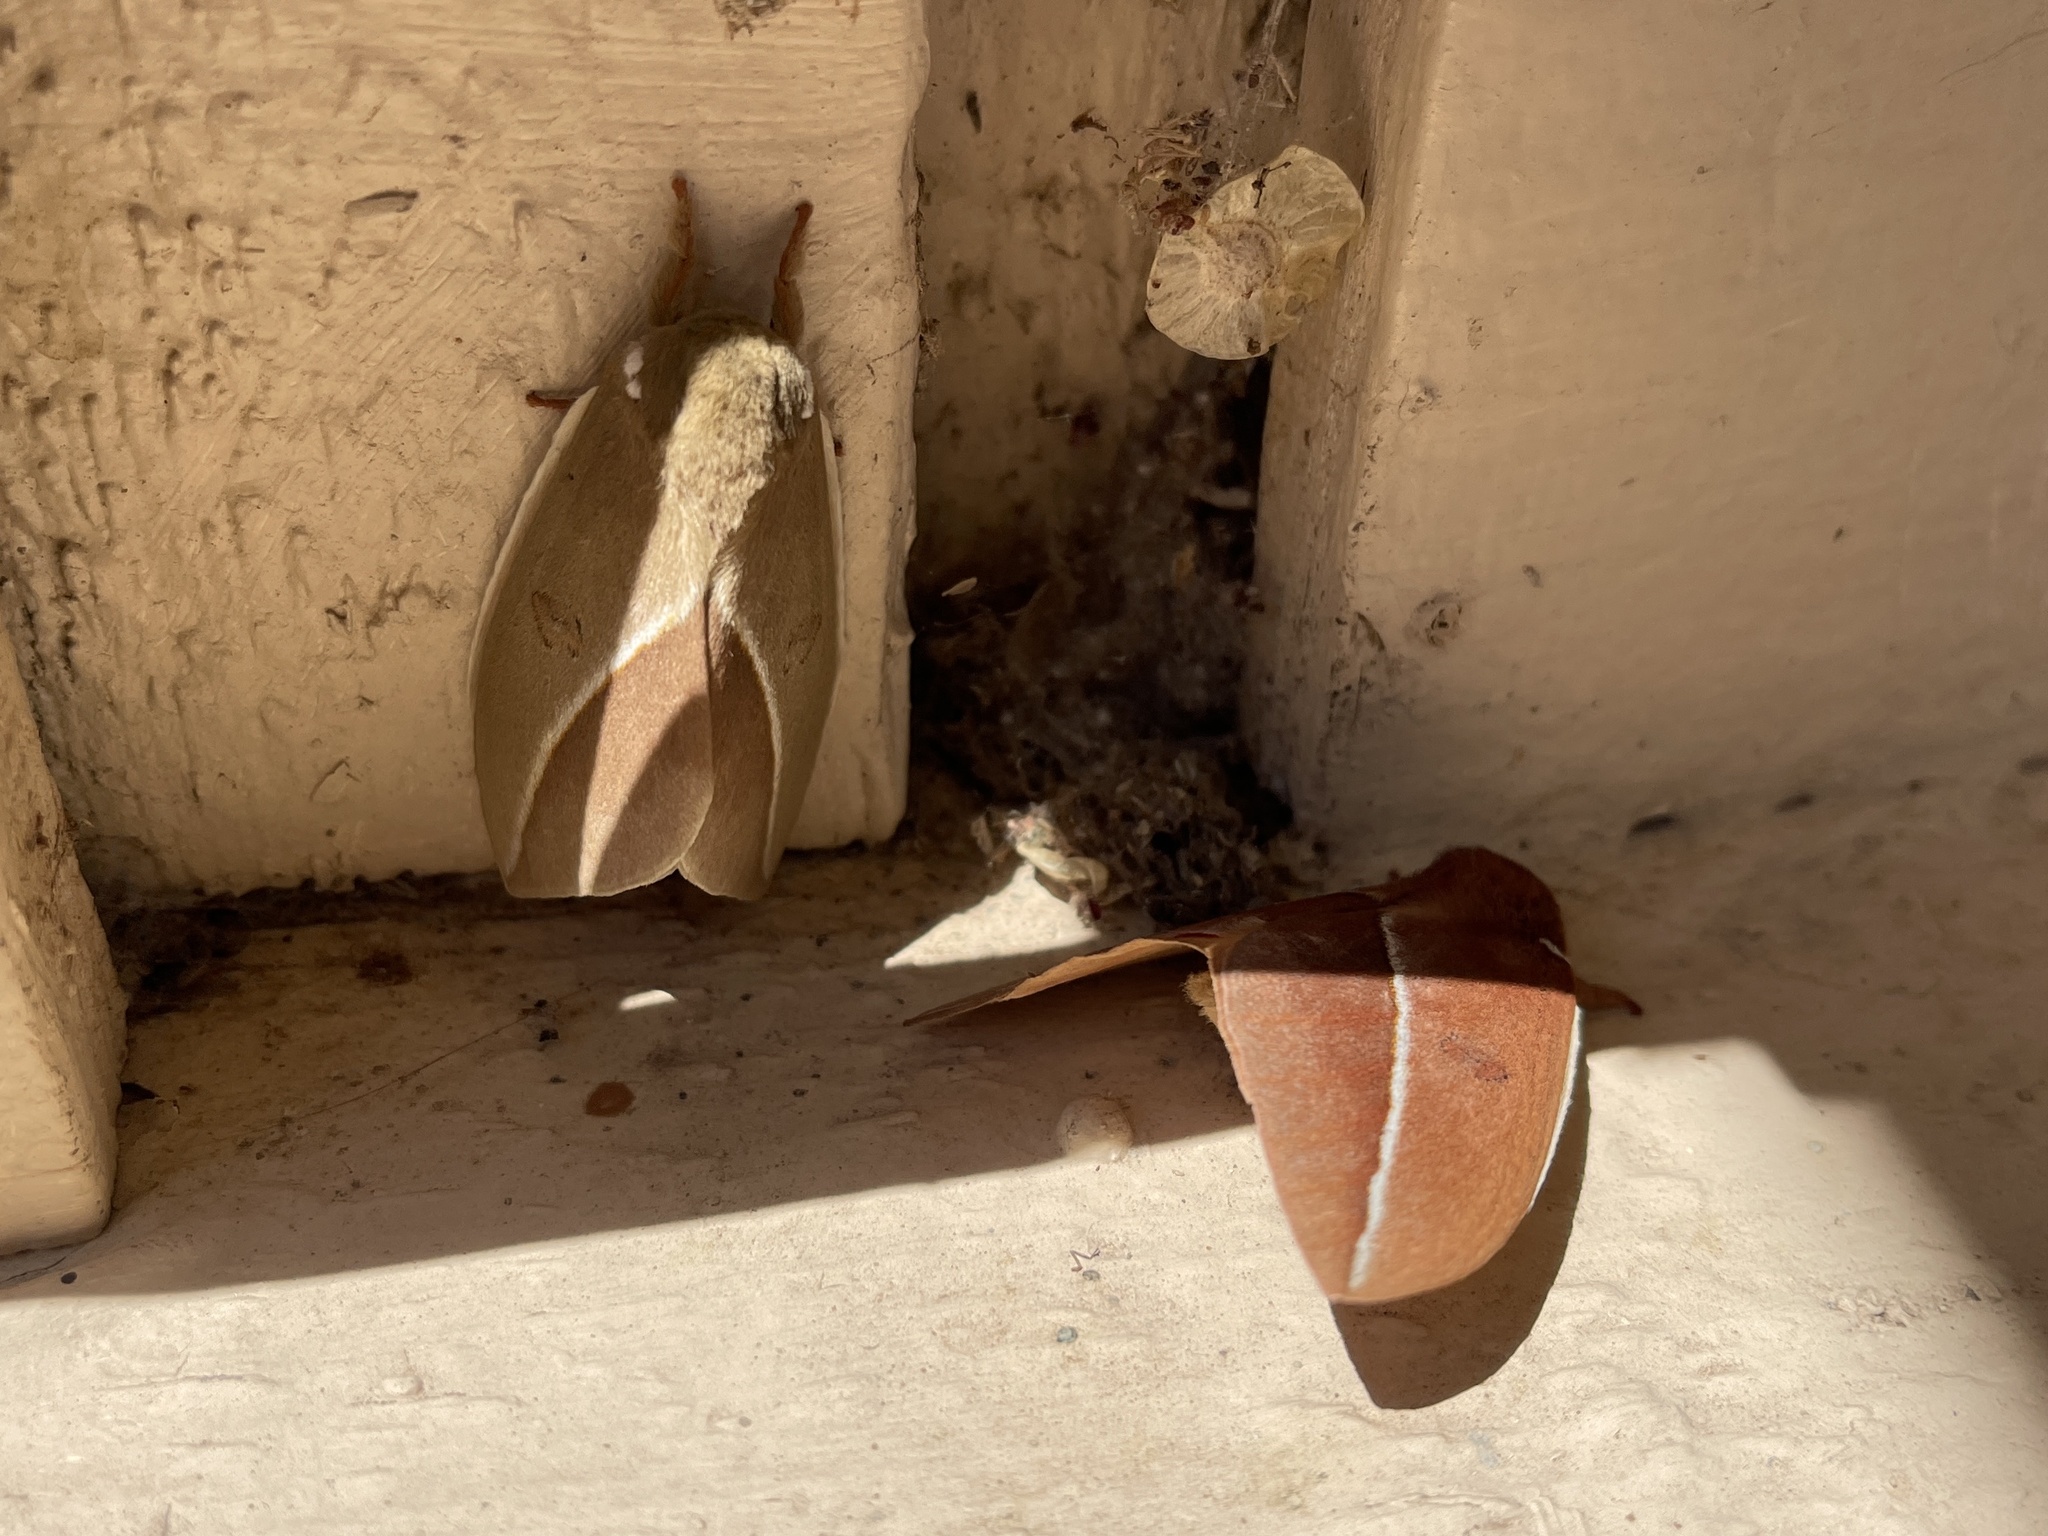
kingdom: Animalia
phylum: Arthropoda
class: Insecta
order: Lepidoptera
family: Saturniidae
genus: Automeris
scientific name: Automeris zephyria
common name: Zephyr eyed silkmoth
